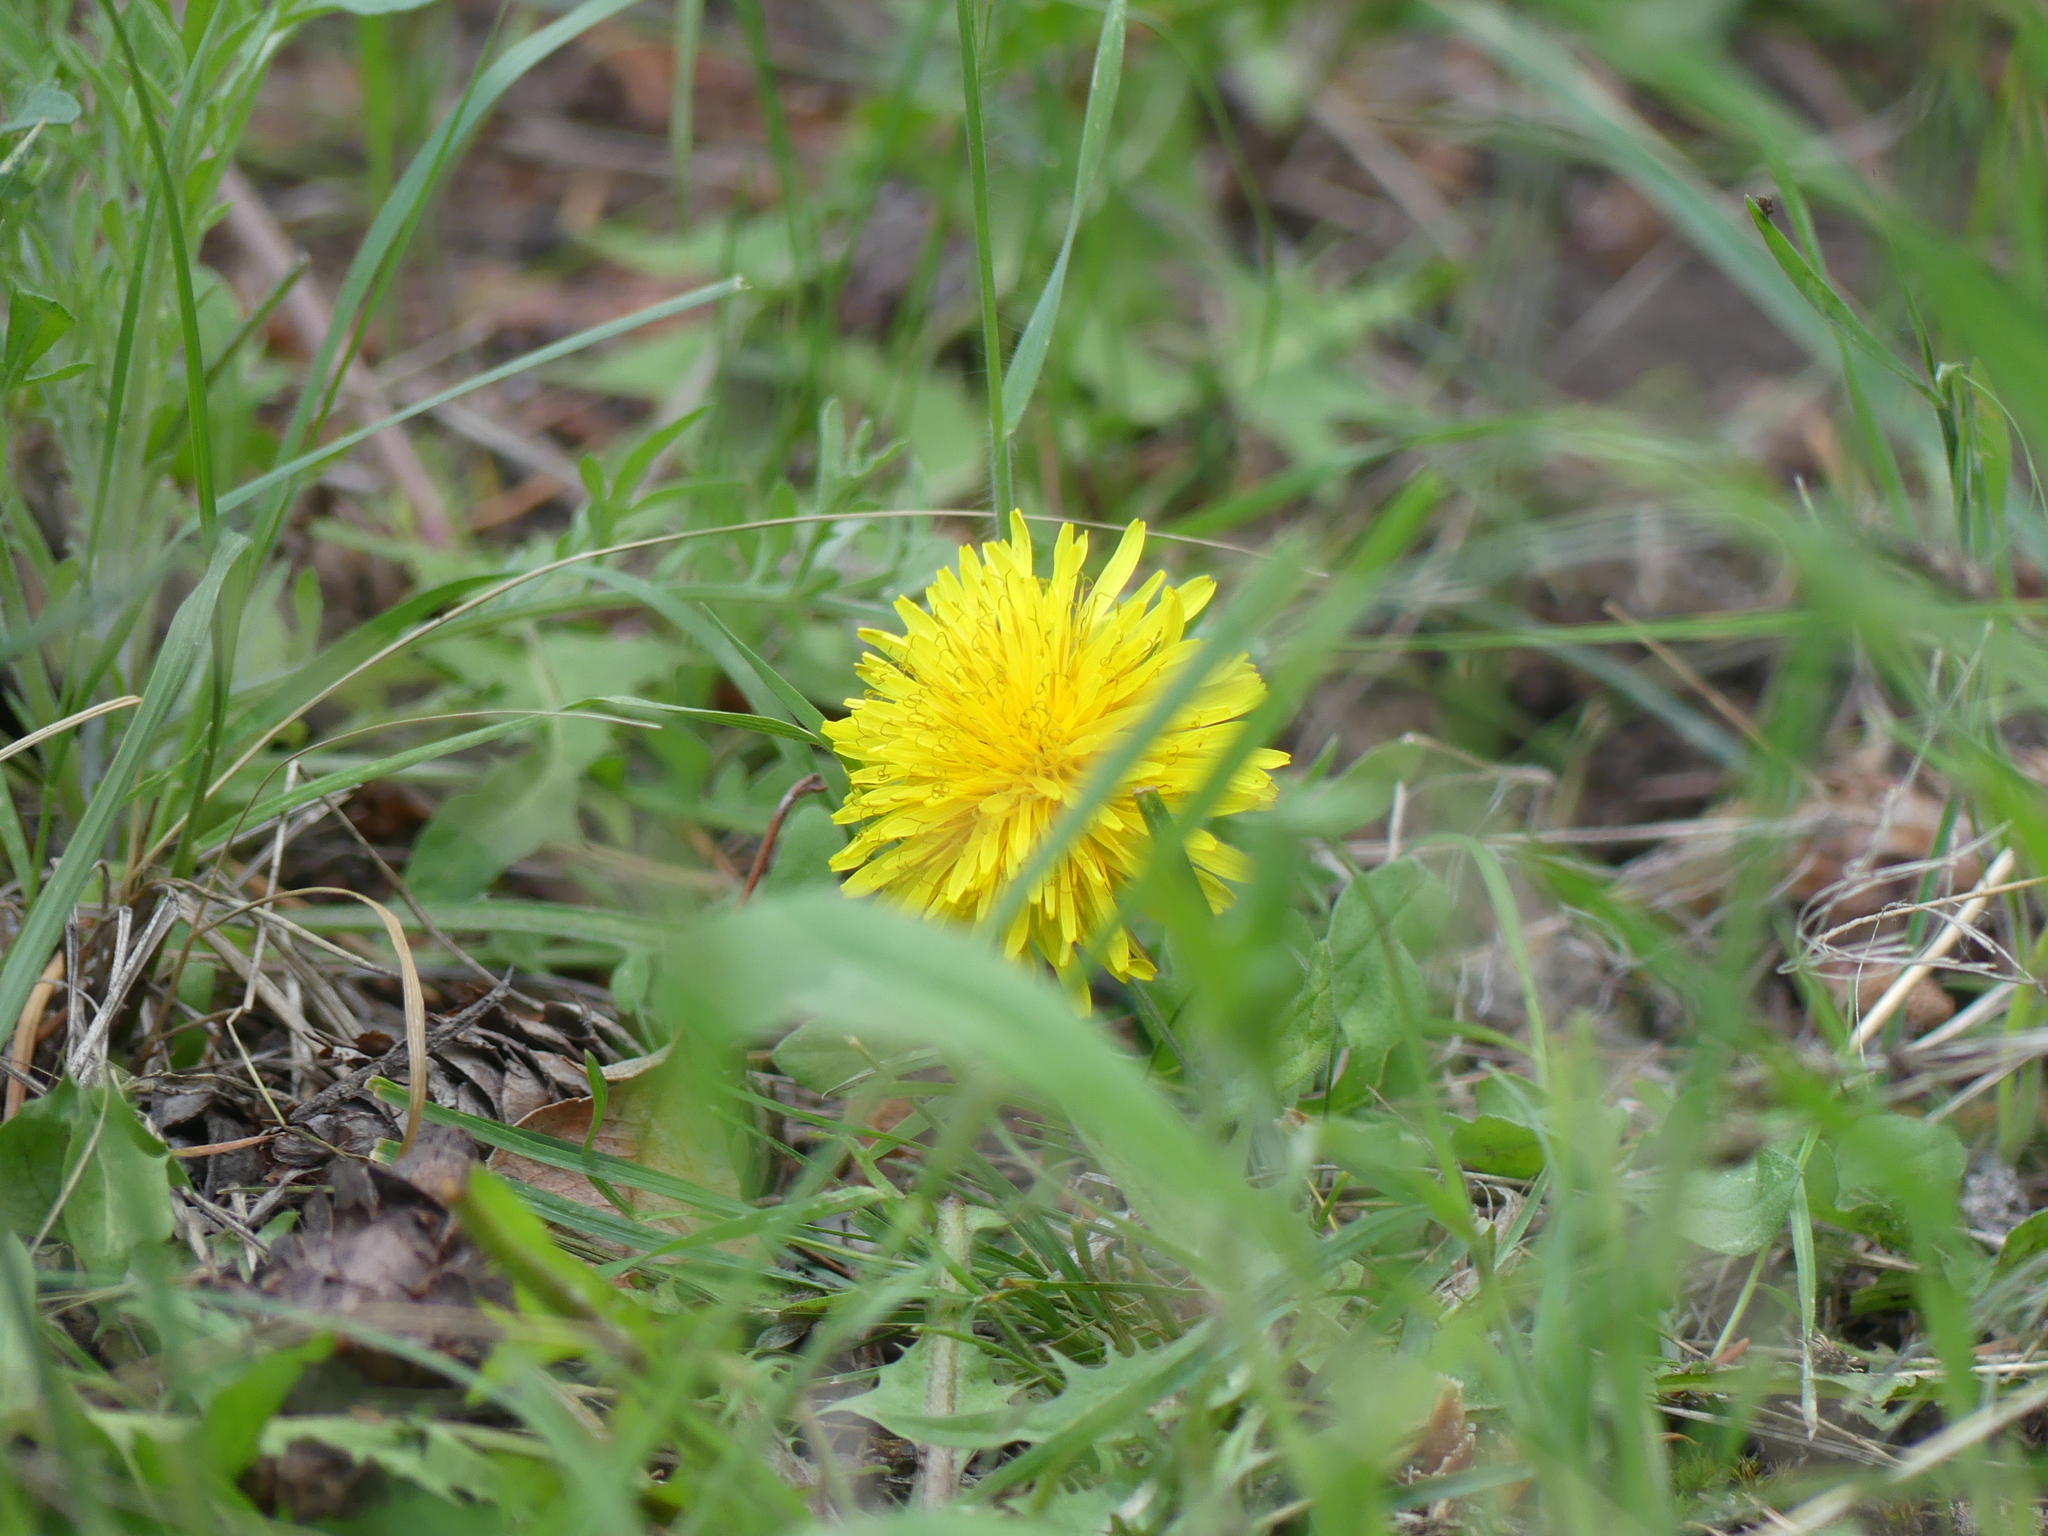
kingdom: Plantae
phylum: Tracheophyta
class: Magnoliopsida
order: Asterales
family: Asteraceae
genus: Taraxacum
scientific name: Taraxacum
